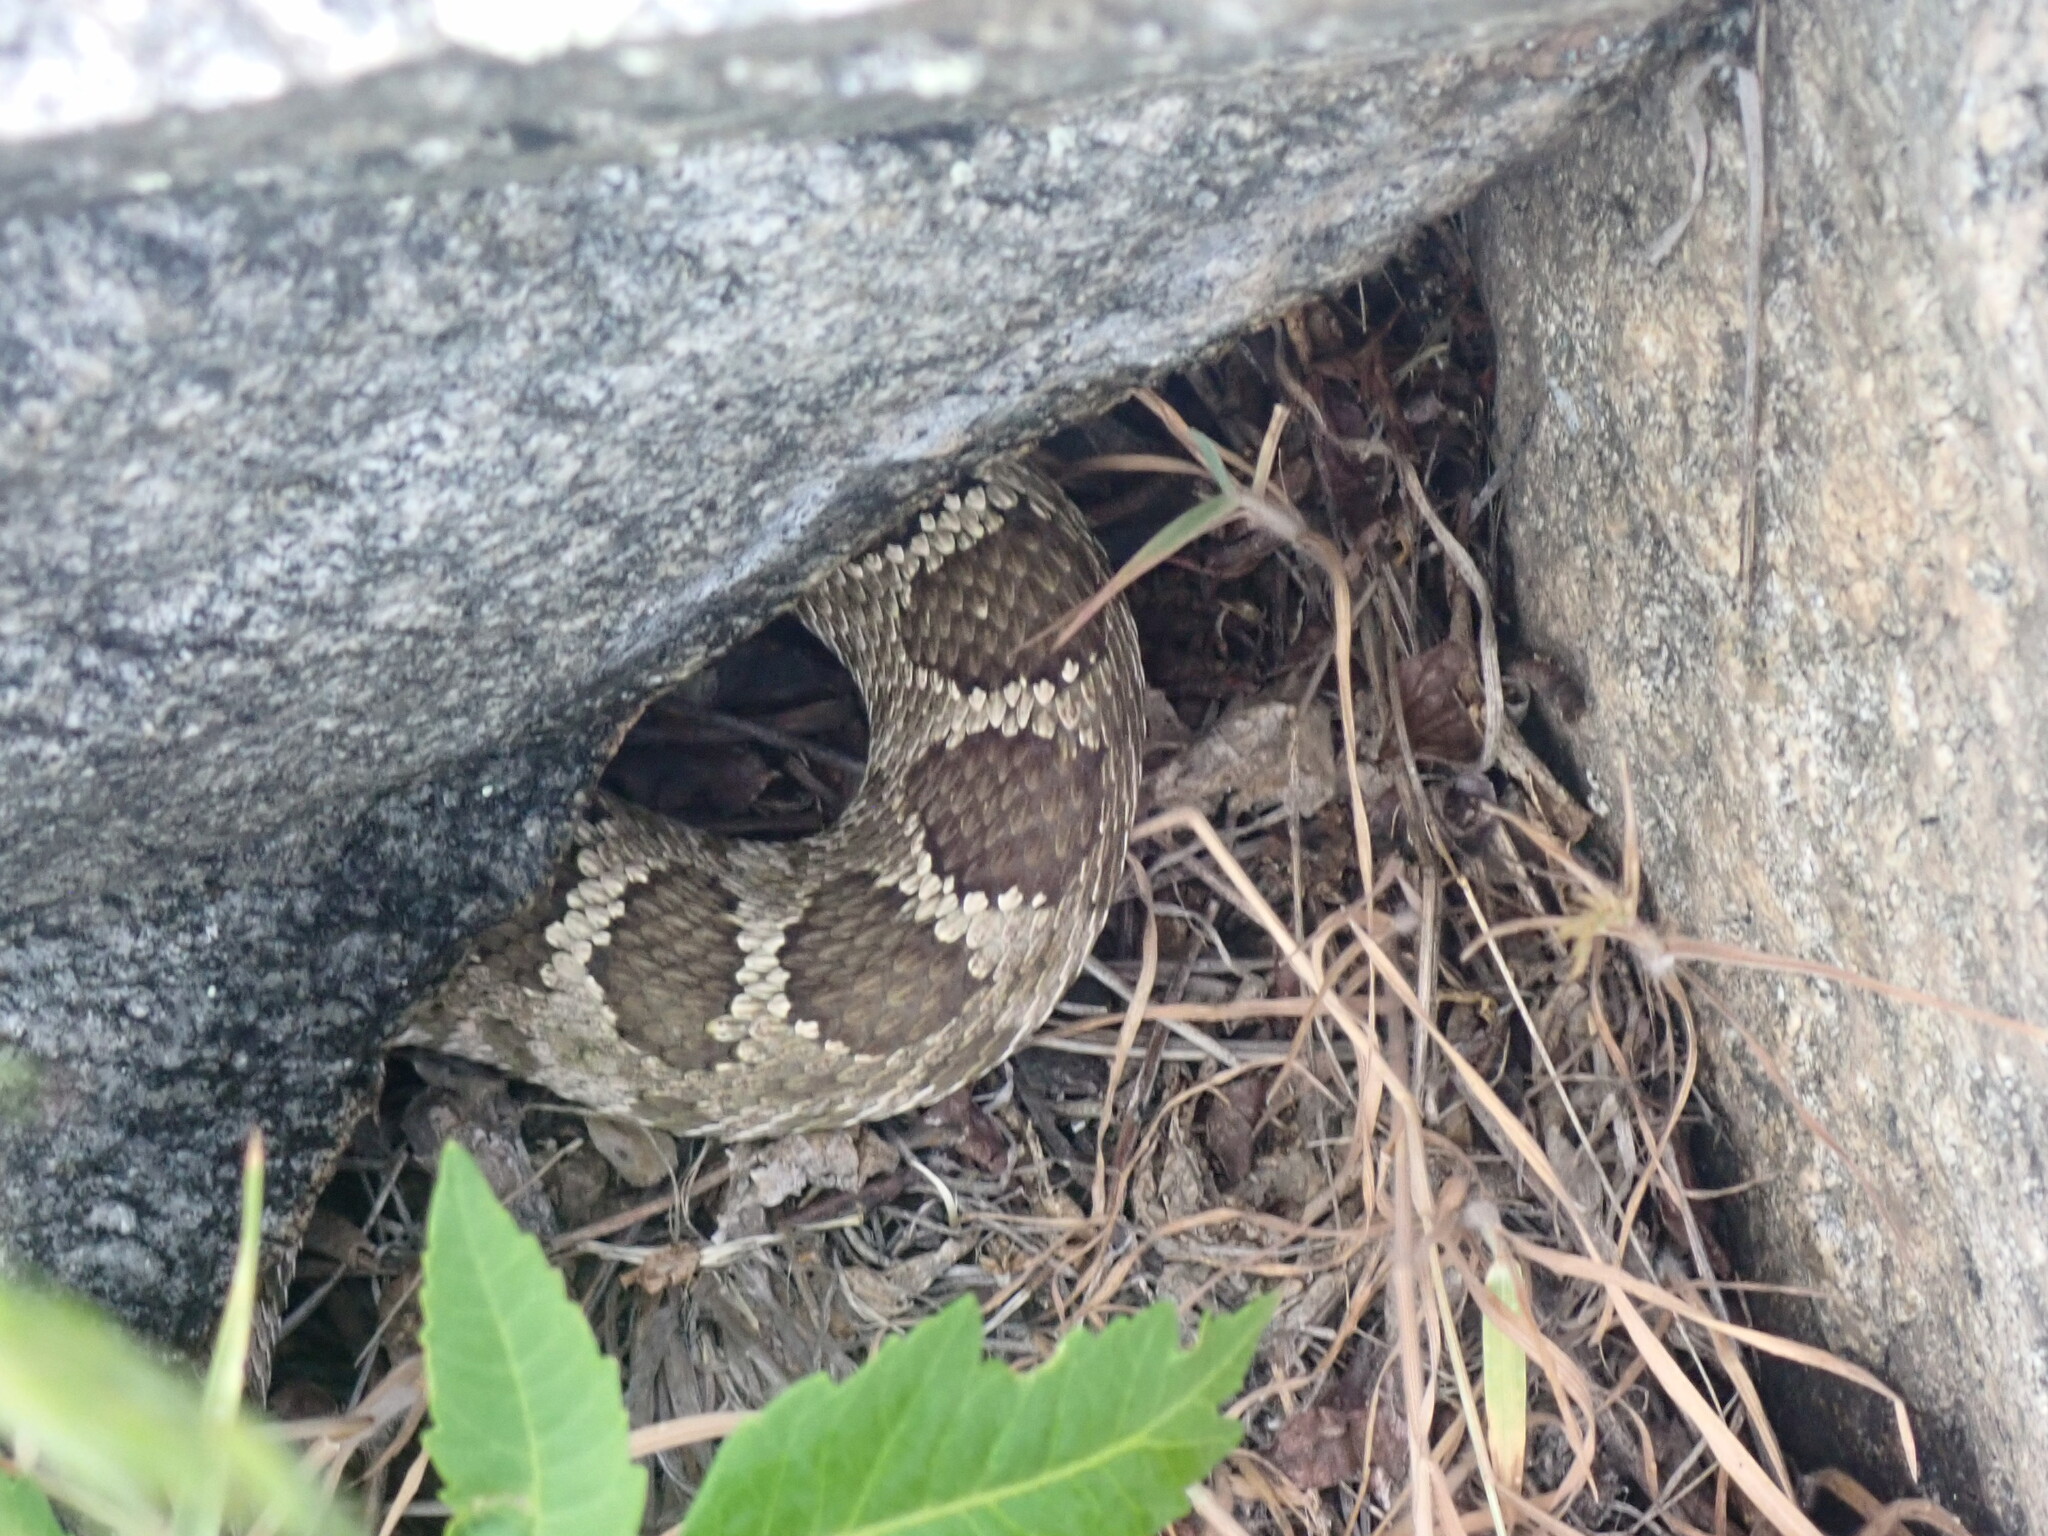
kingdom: Animalia
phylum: Chordata
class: Squamata
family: Viperidae
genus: Crotalus
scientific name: Crotalus oreganus
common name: Abyssus
